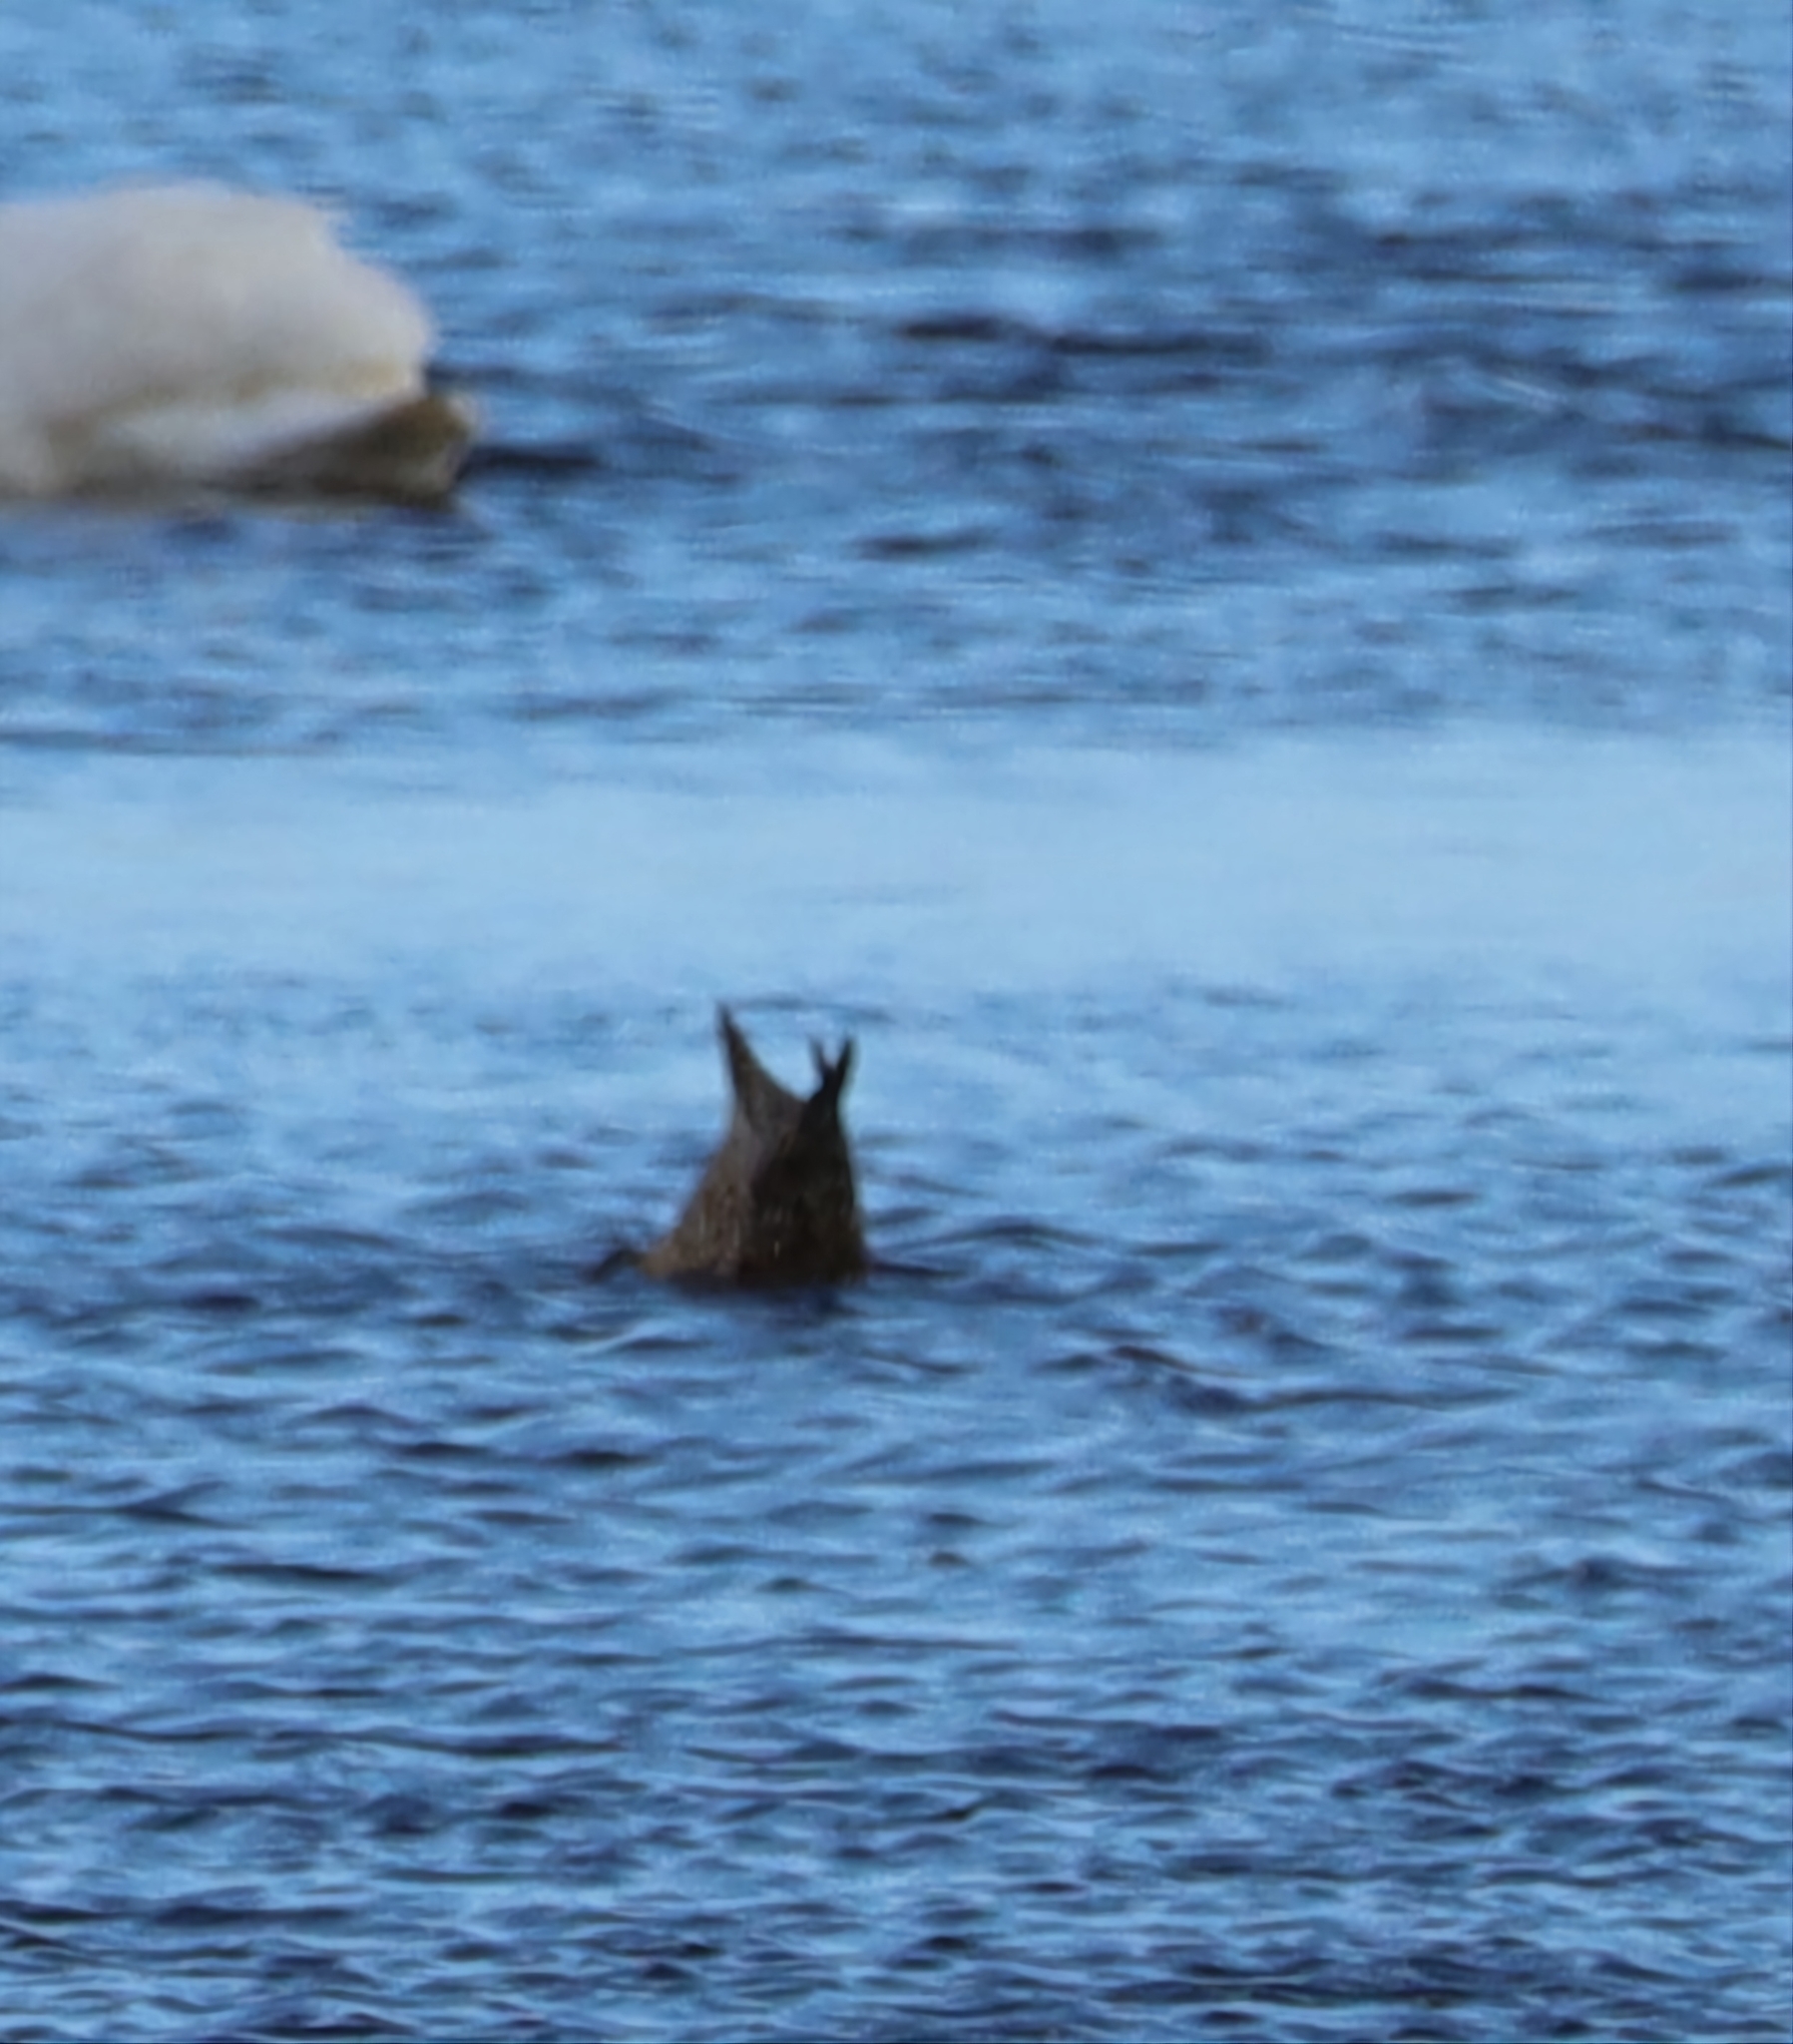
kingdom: Animalia
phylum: Chordata
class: Aves
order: Anseriformes
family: Anatidae
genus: Anas
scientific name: Anas acuta
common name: Northern pintail
